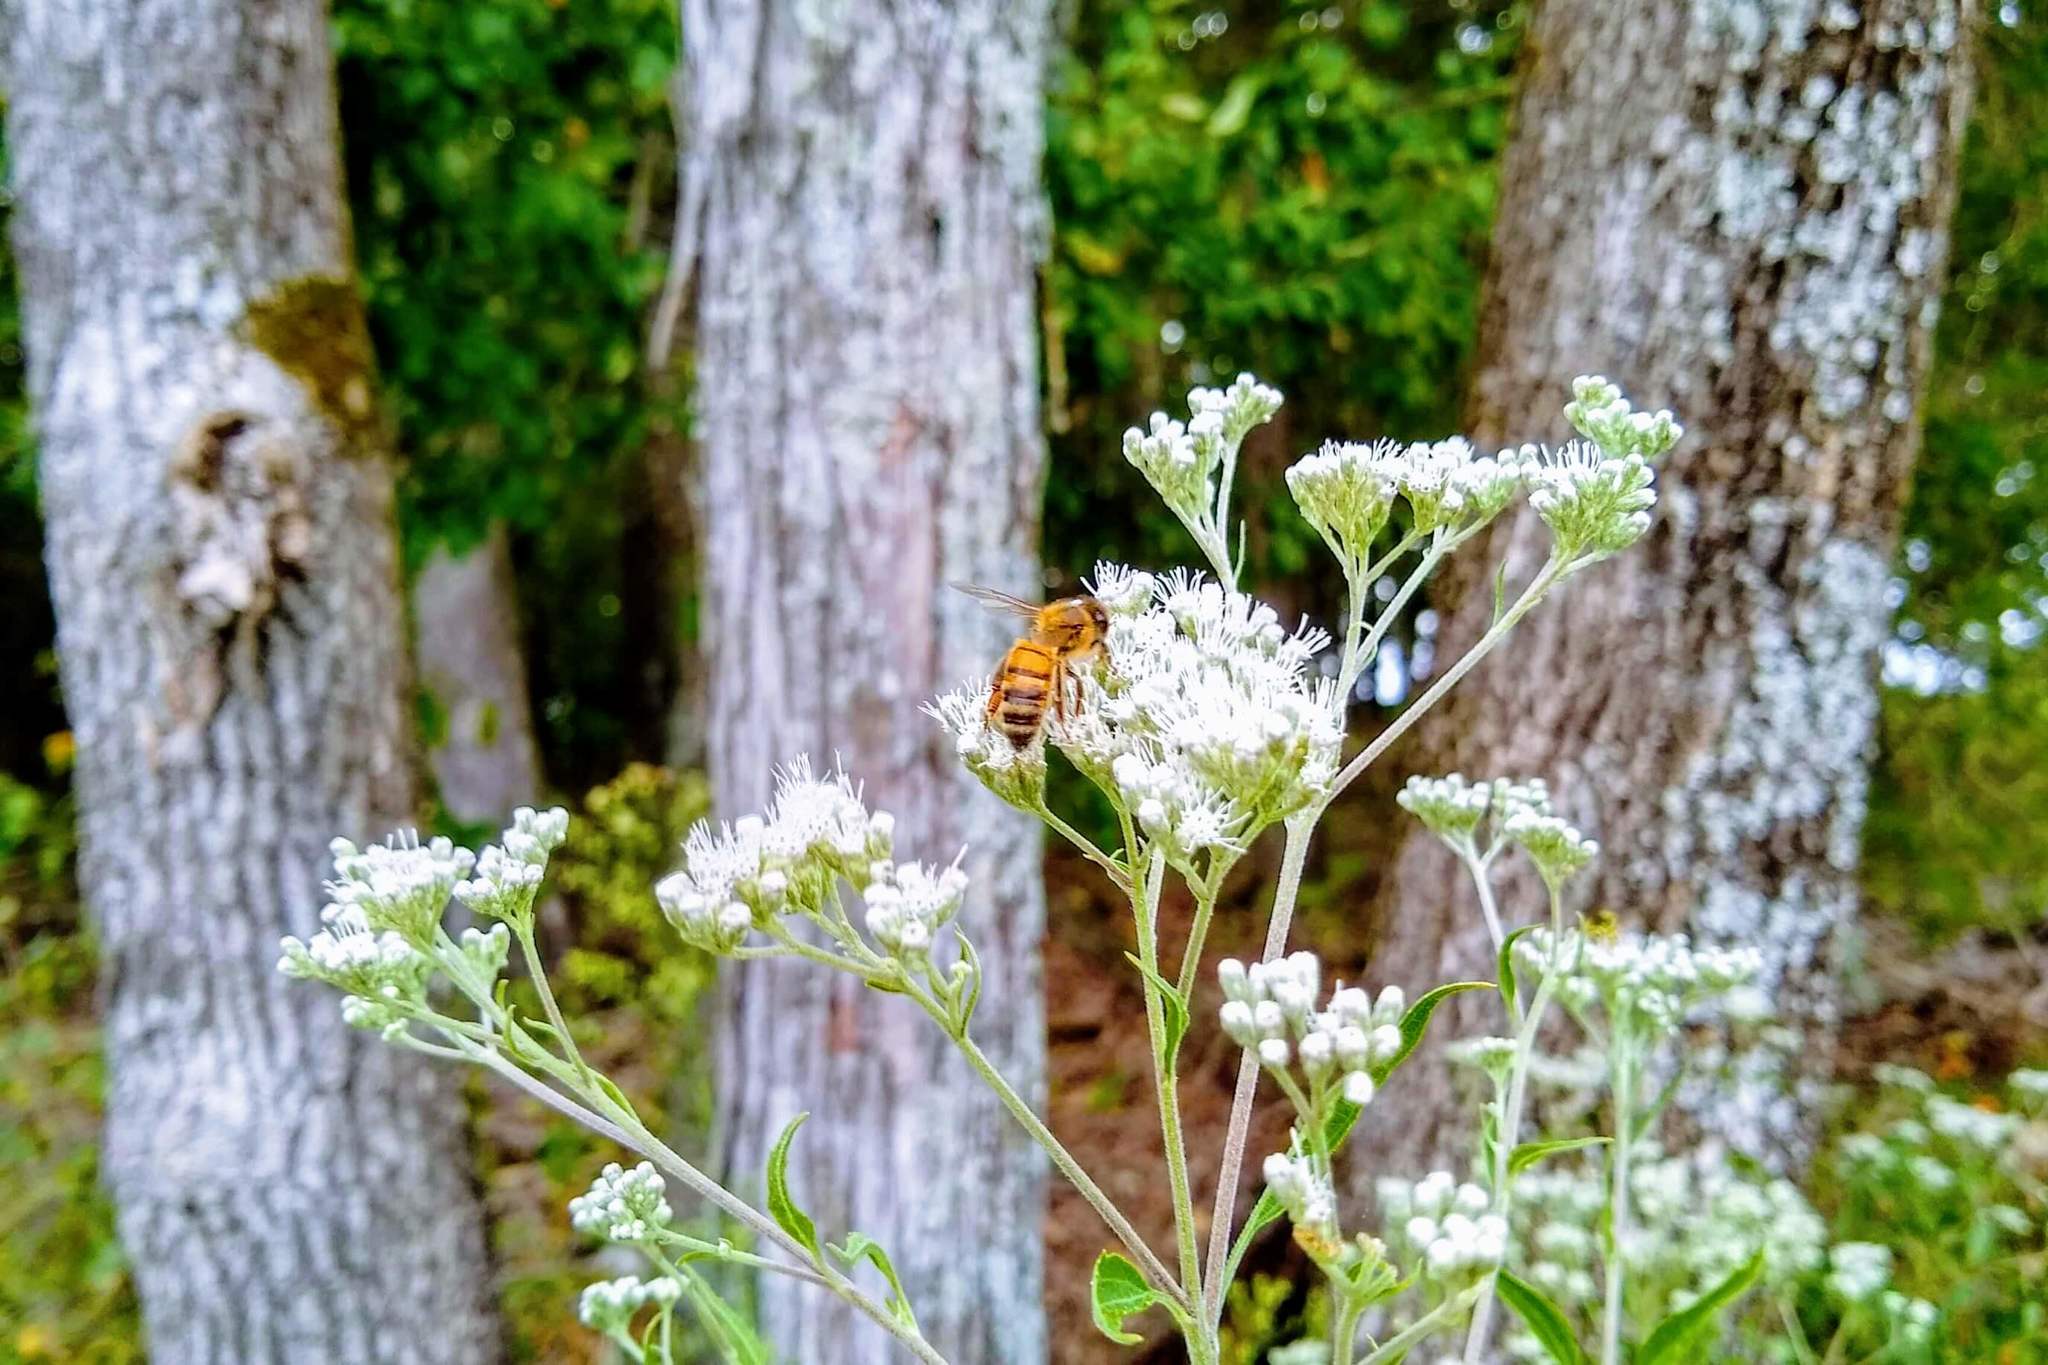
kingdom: Plantae
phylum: Tracheophyta
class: Magnoliopsida
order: Asterales
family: Asteraceae
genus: Eupatorium
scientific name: Eupatorium serotinum
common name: Late boneset
